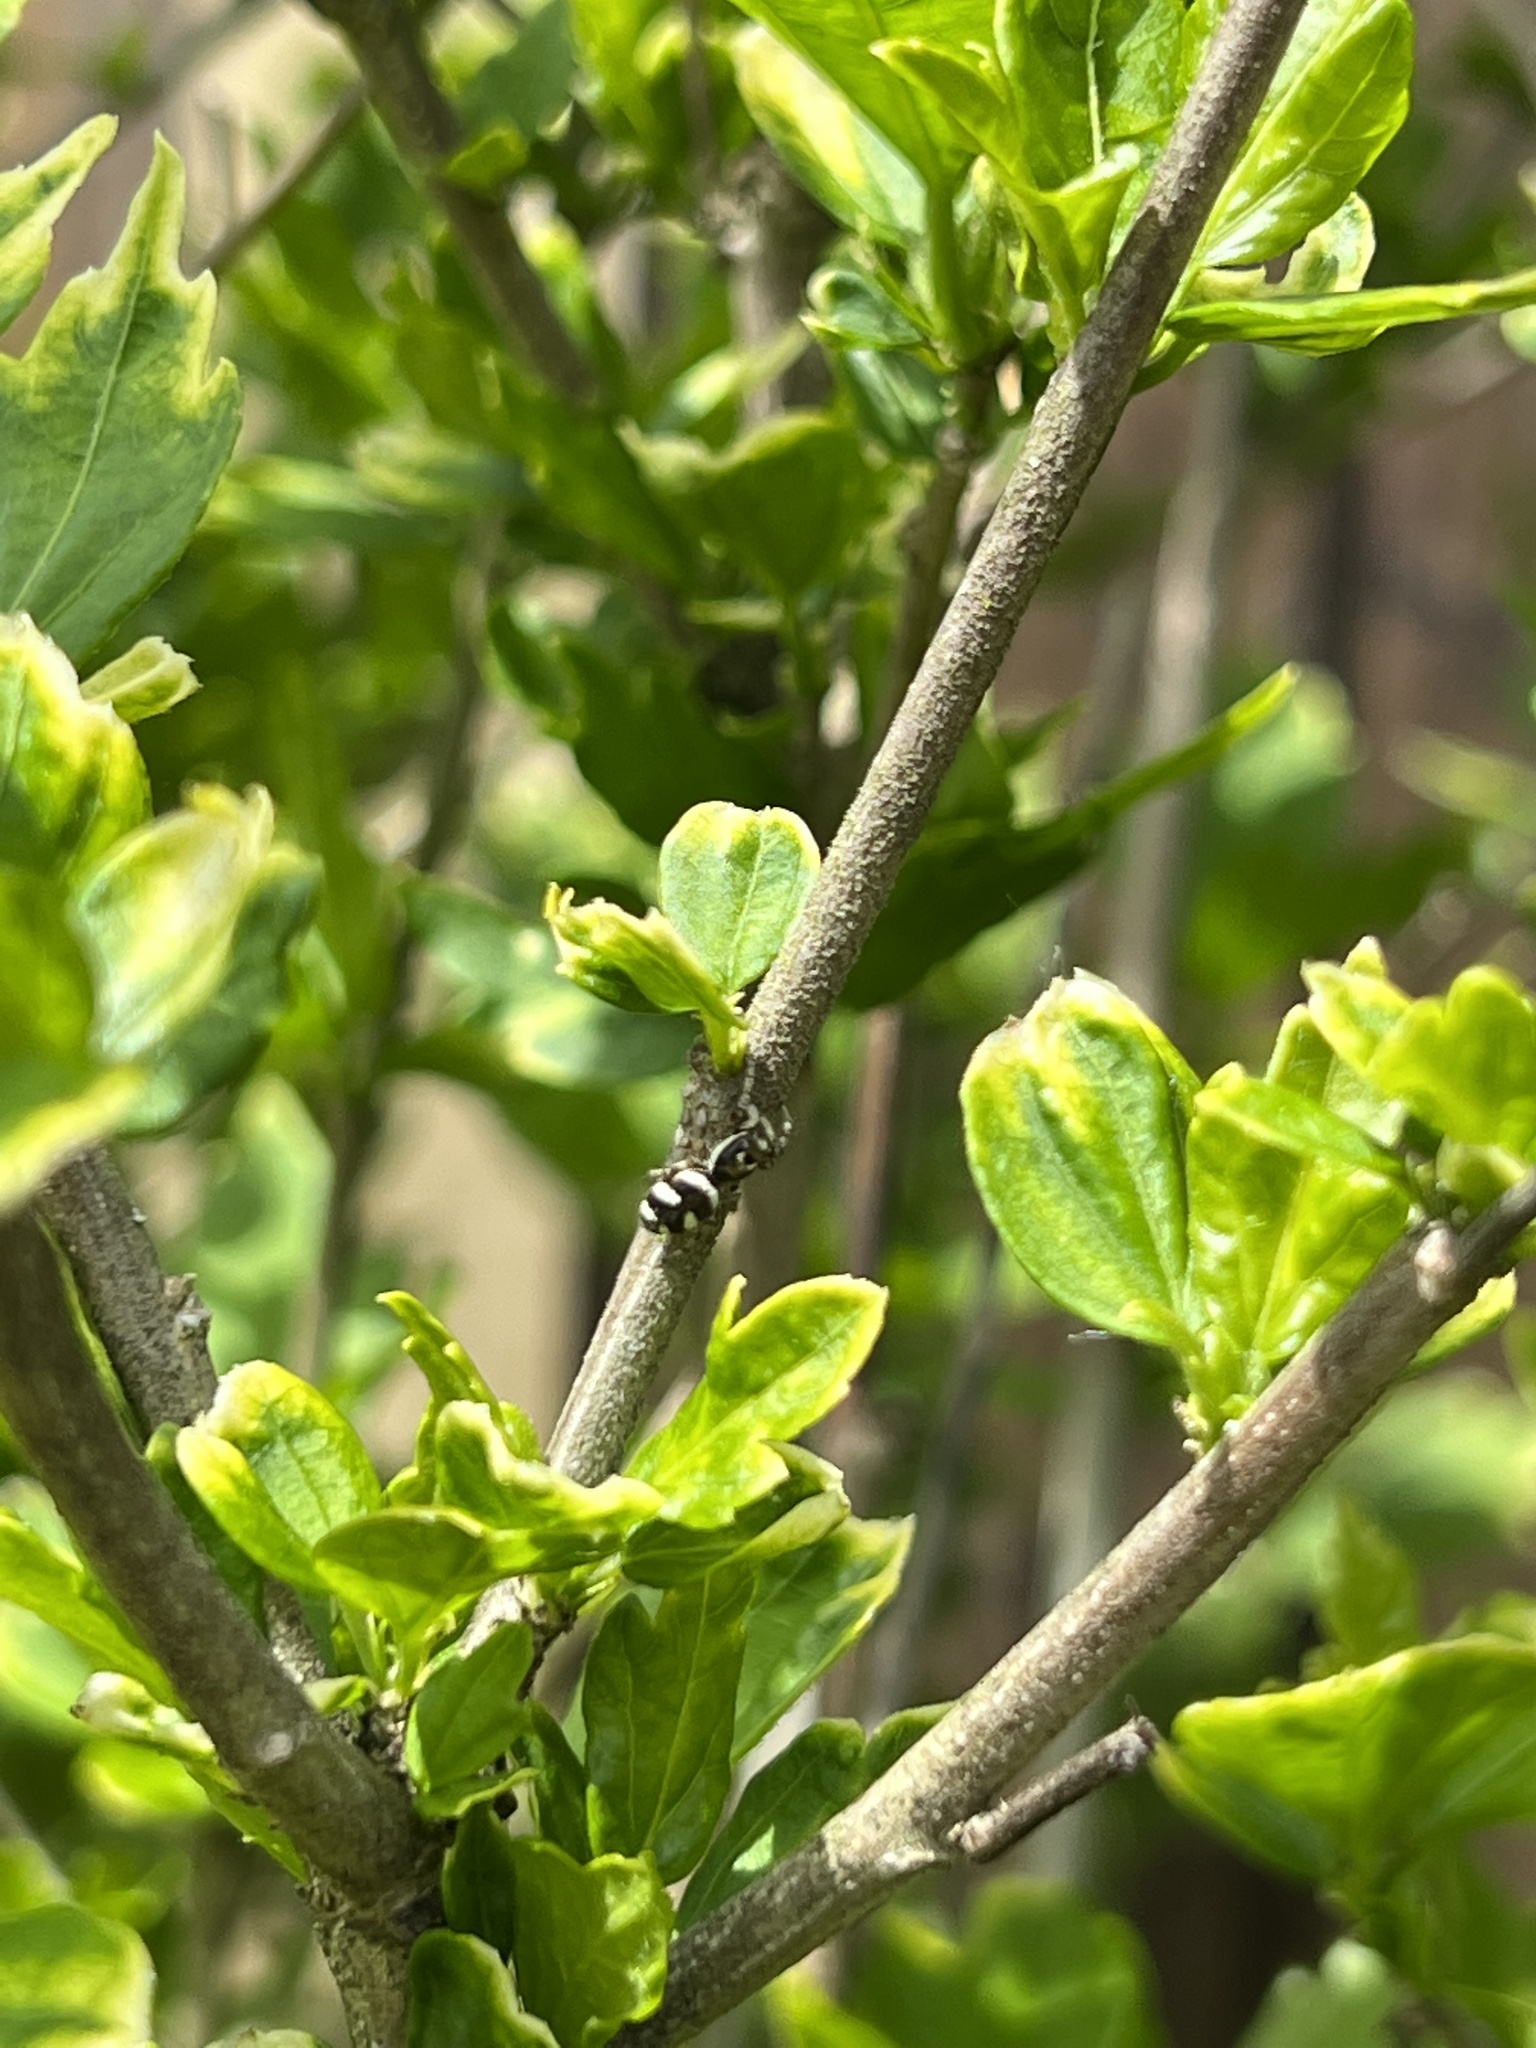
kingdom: Animalia
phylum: Arthropoda
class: Arachnida
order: Araneae
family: Salticidae
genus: Salticus
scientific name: Salticus scenicus
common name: Zebra jumper
